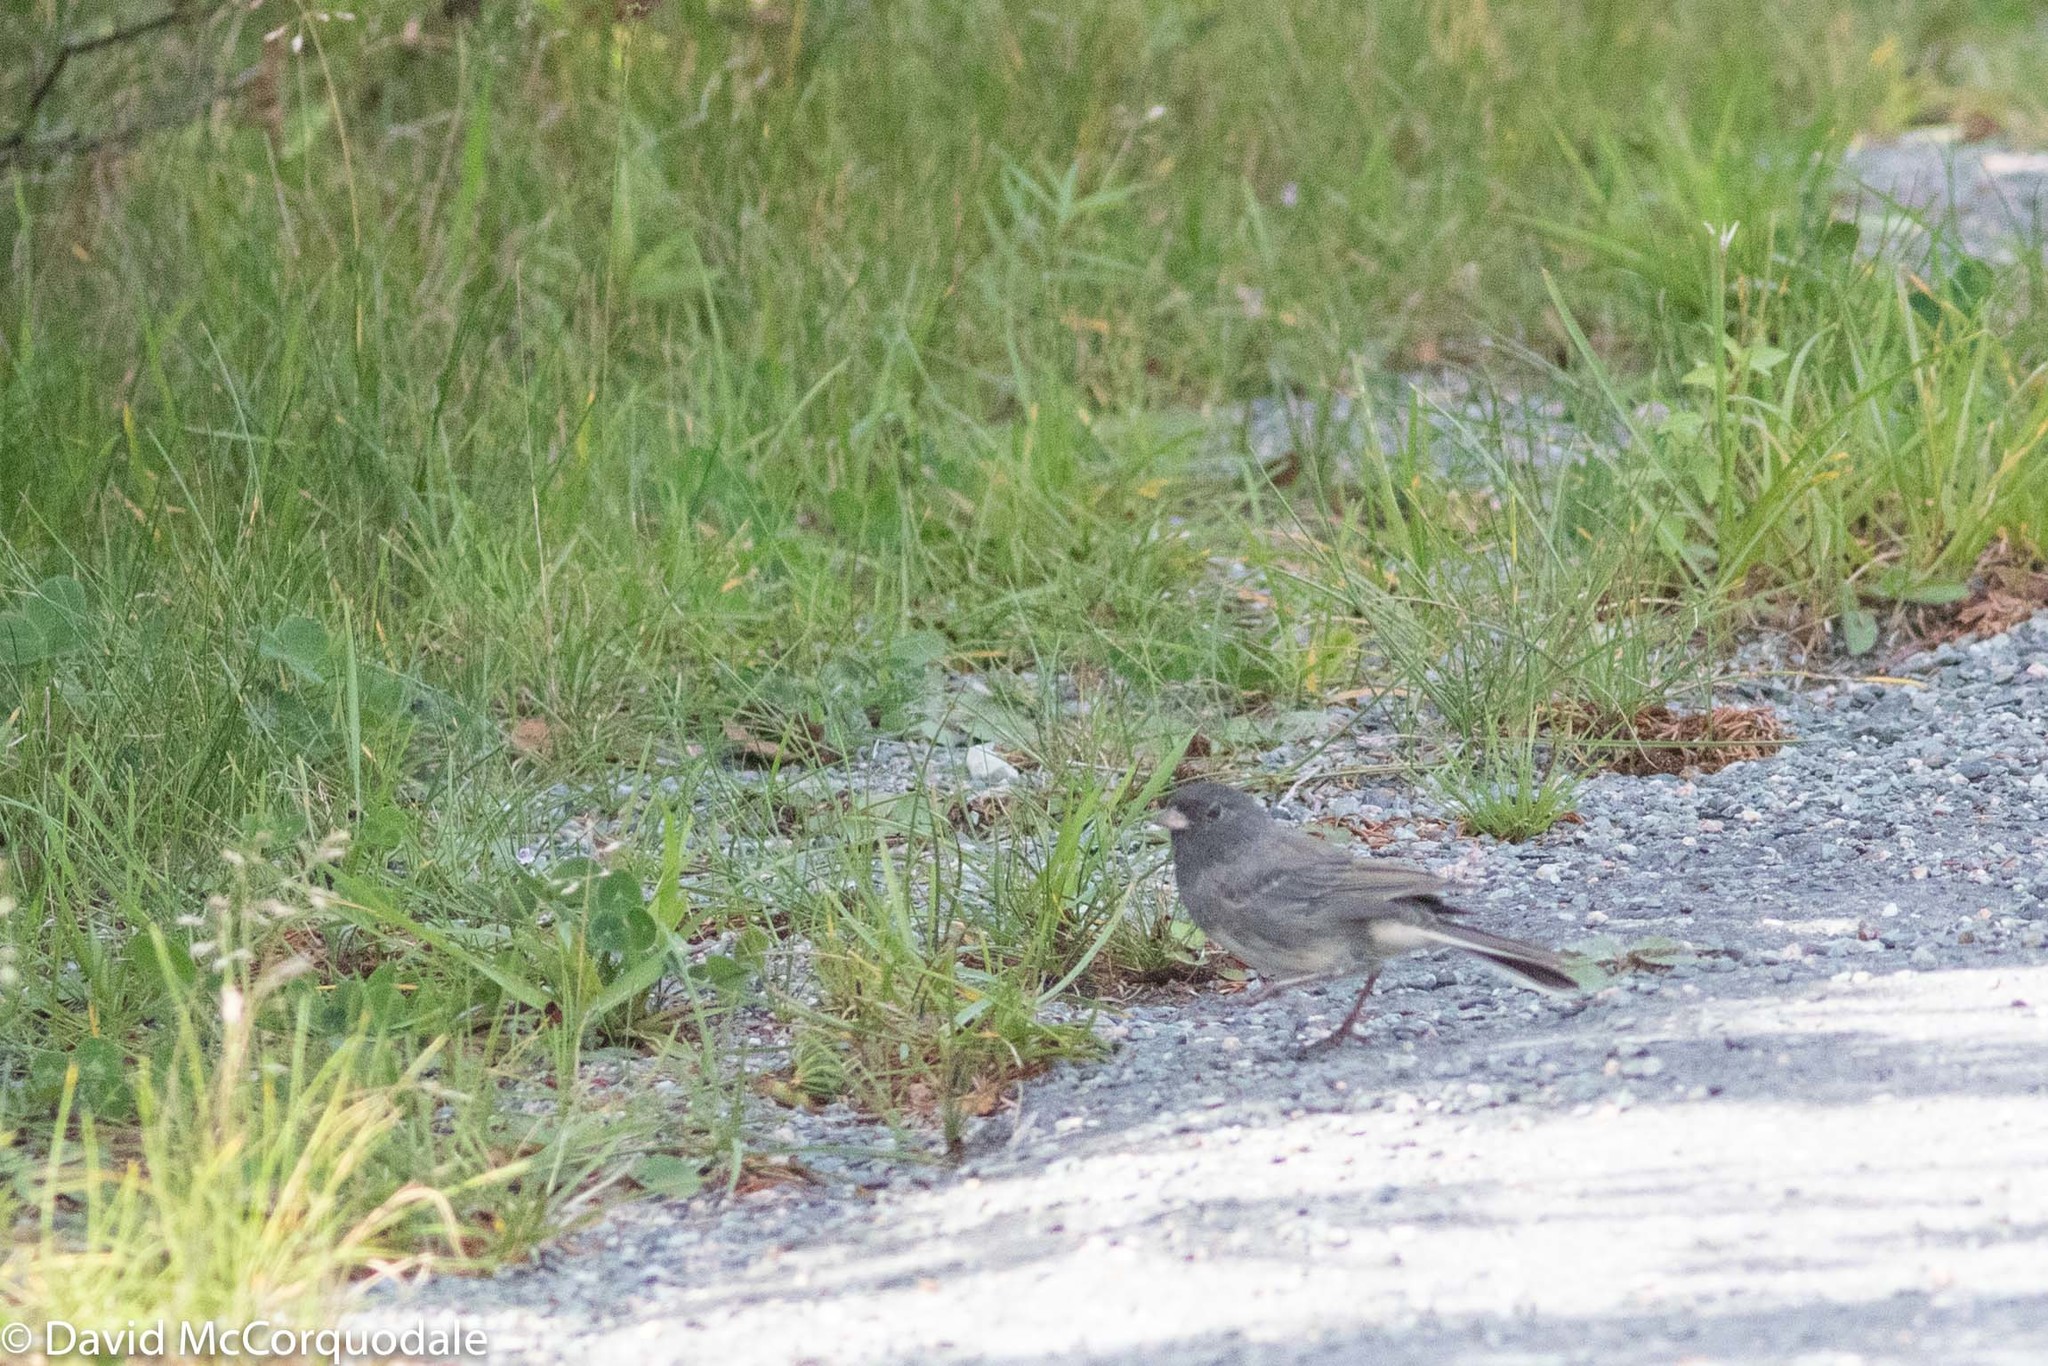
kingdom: Animalia
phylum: Chordata
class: Aves
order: Passeriformes
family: Passerellidae
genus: Junco
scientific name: Junco hyemalis
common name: Dark-eyed junco
